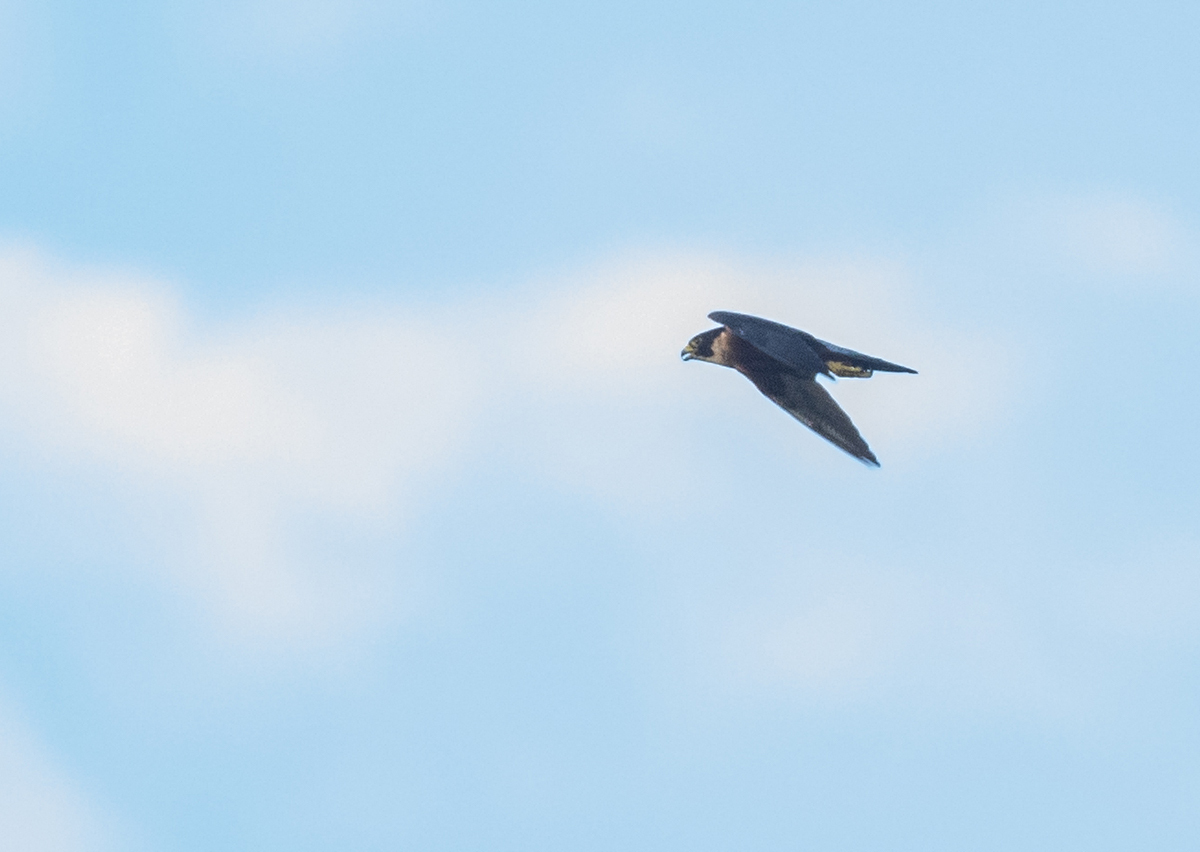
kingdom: Animalia
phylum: Chordata
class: Aves
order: Falconiformes
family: Falconidae
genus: Falco
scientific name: Falco peregrinus
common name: Peregrine falcon
